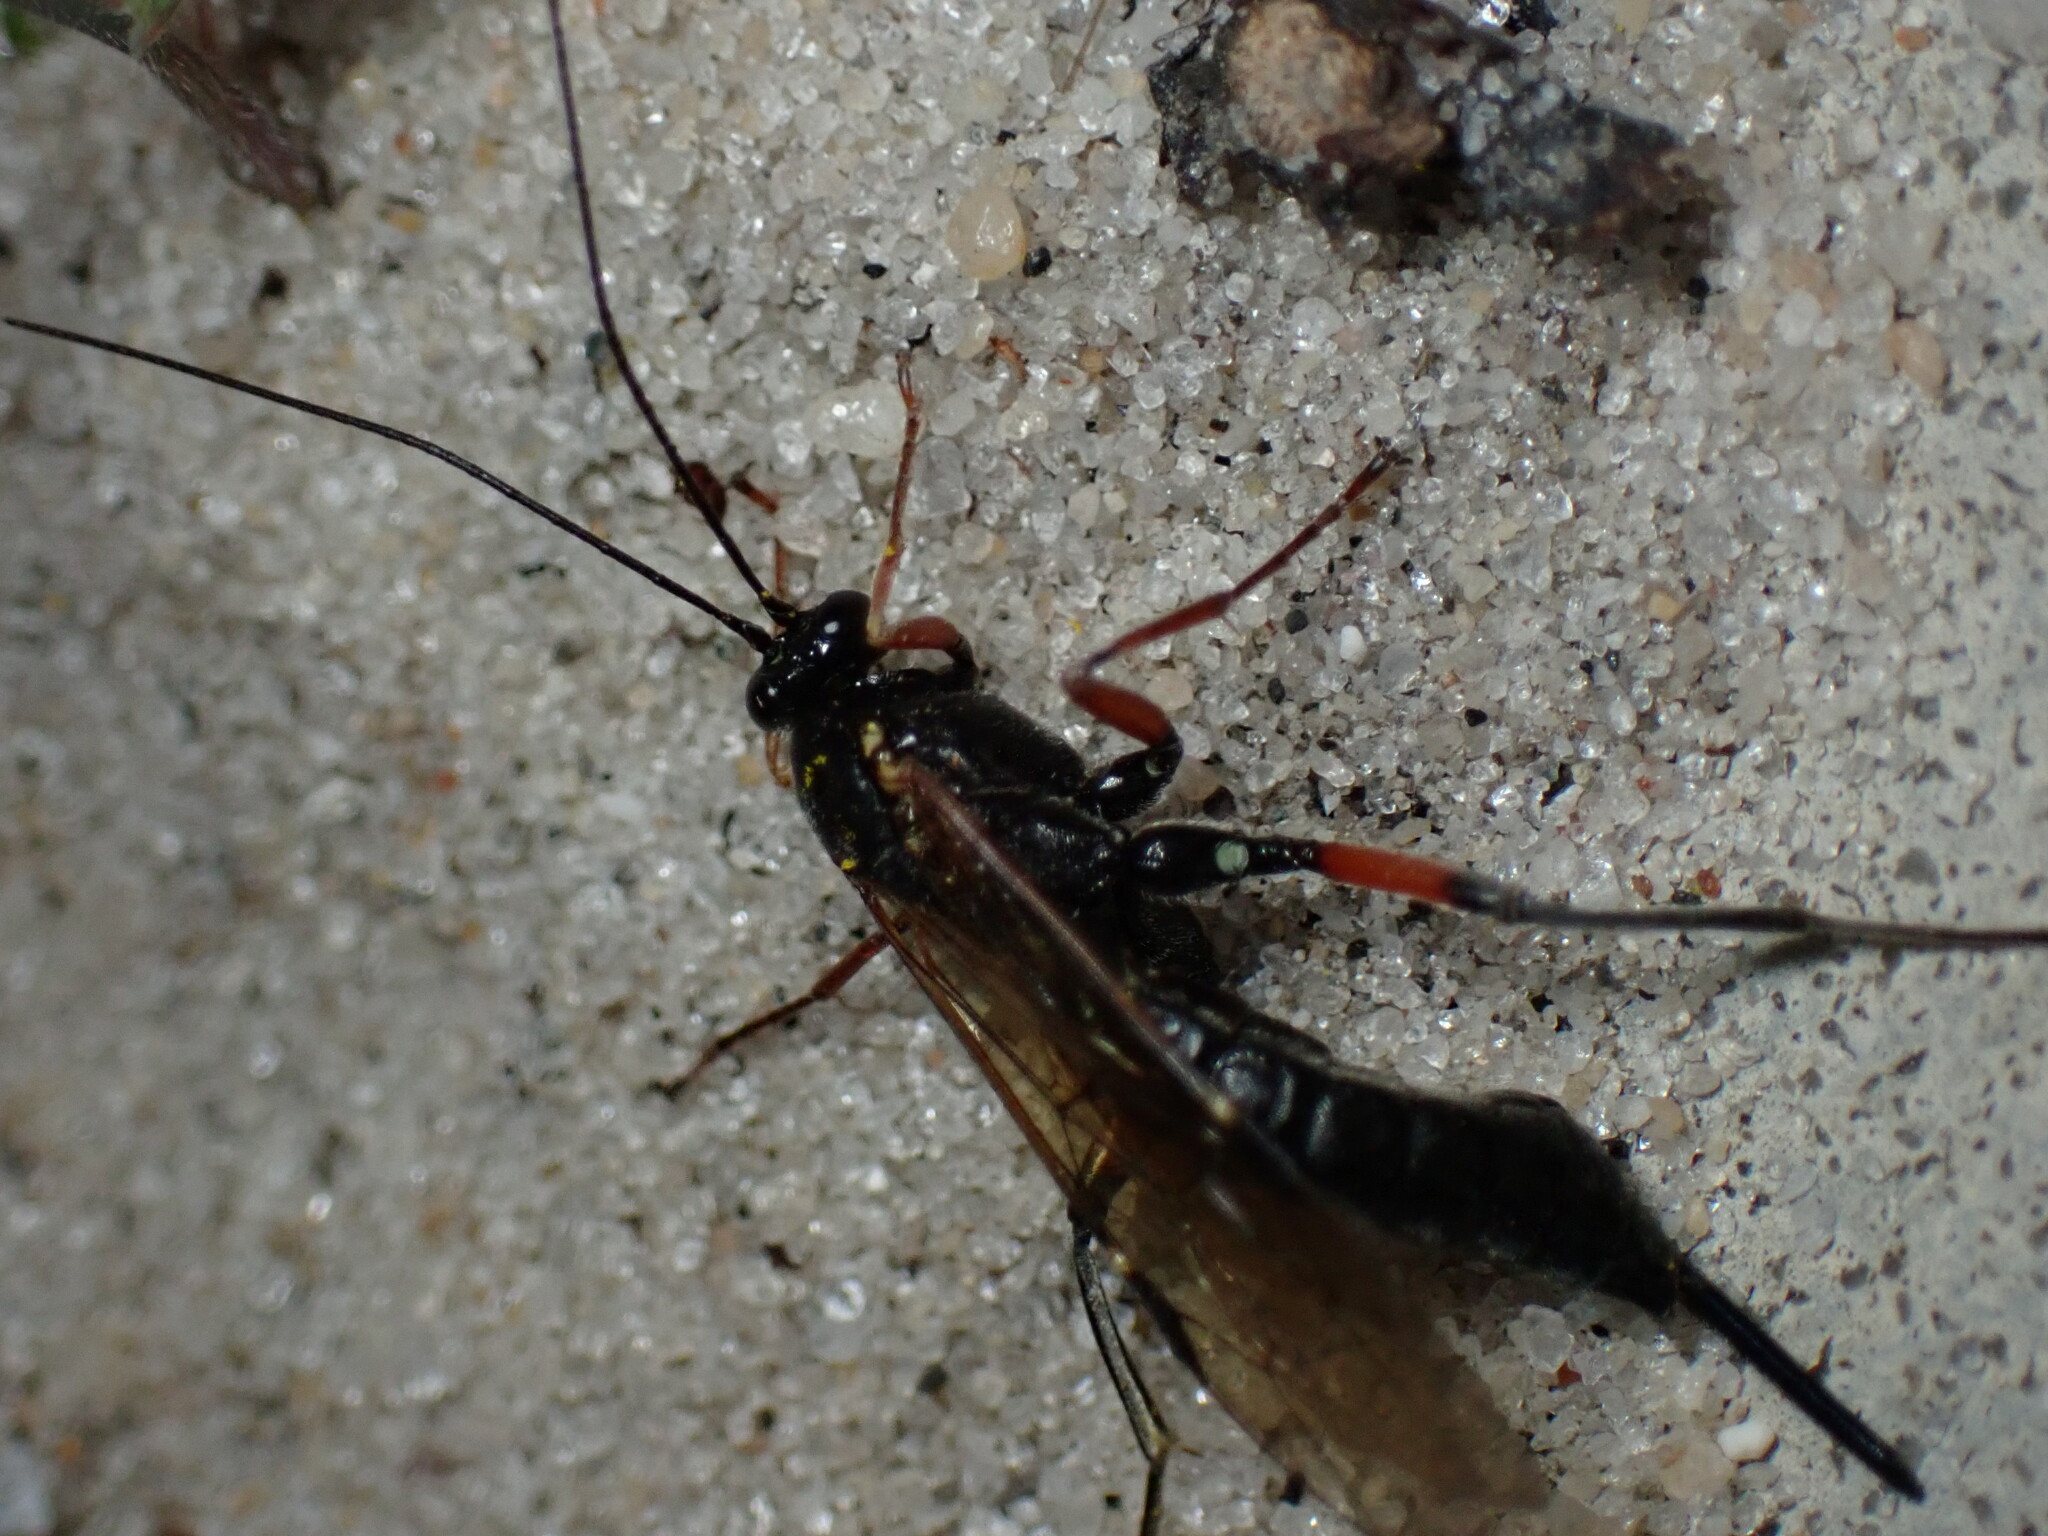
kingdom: Animalia
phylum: Arthropoda
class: Insecta
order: Hymenoptera
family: Ichneumonidae
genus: Pimpla
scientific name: Pimpla disparis
